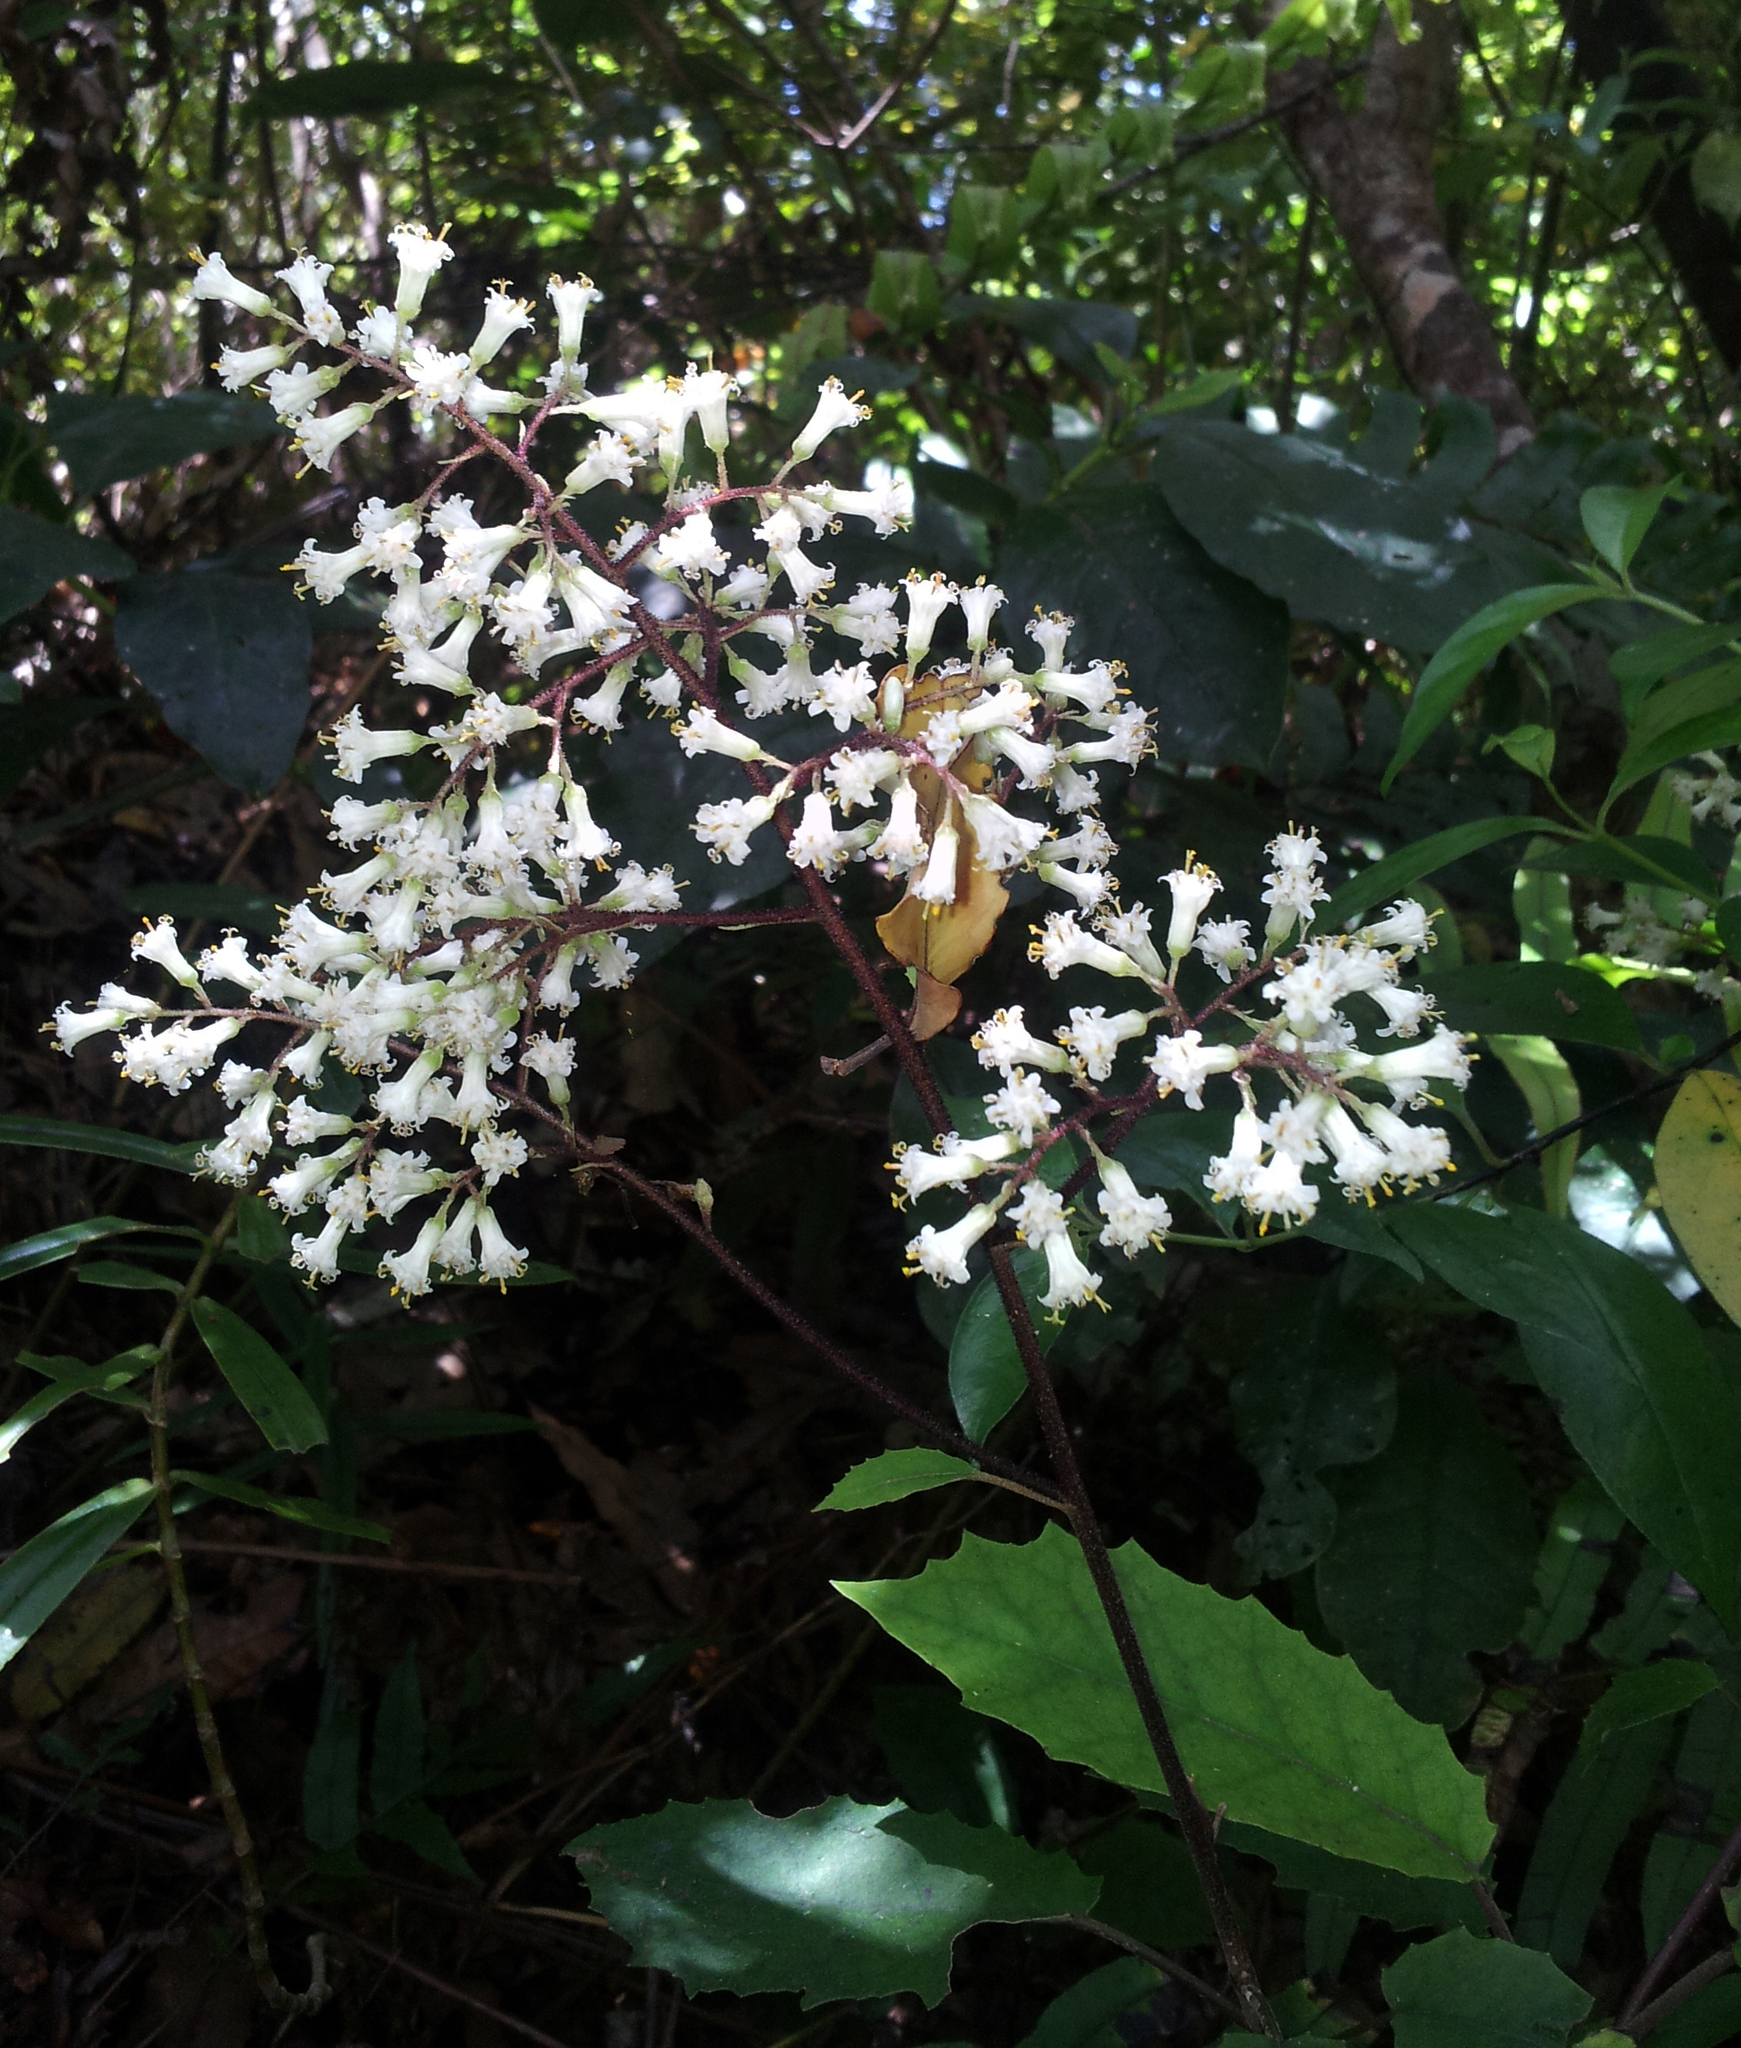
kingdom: Plantae
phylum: Tracheophyta
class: Magnoliopsida
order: Asterales
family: Asteraceae
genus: Brachyglottis
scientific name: Brachyglottis myrianthos
